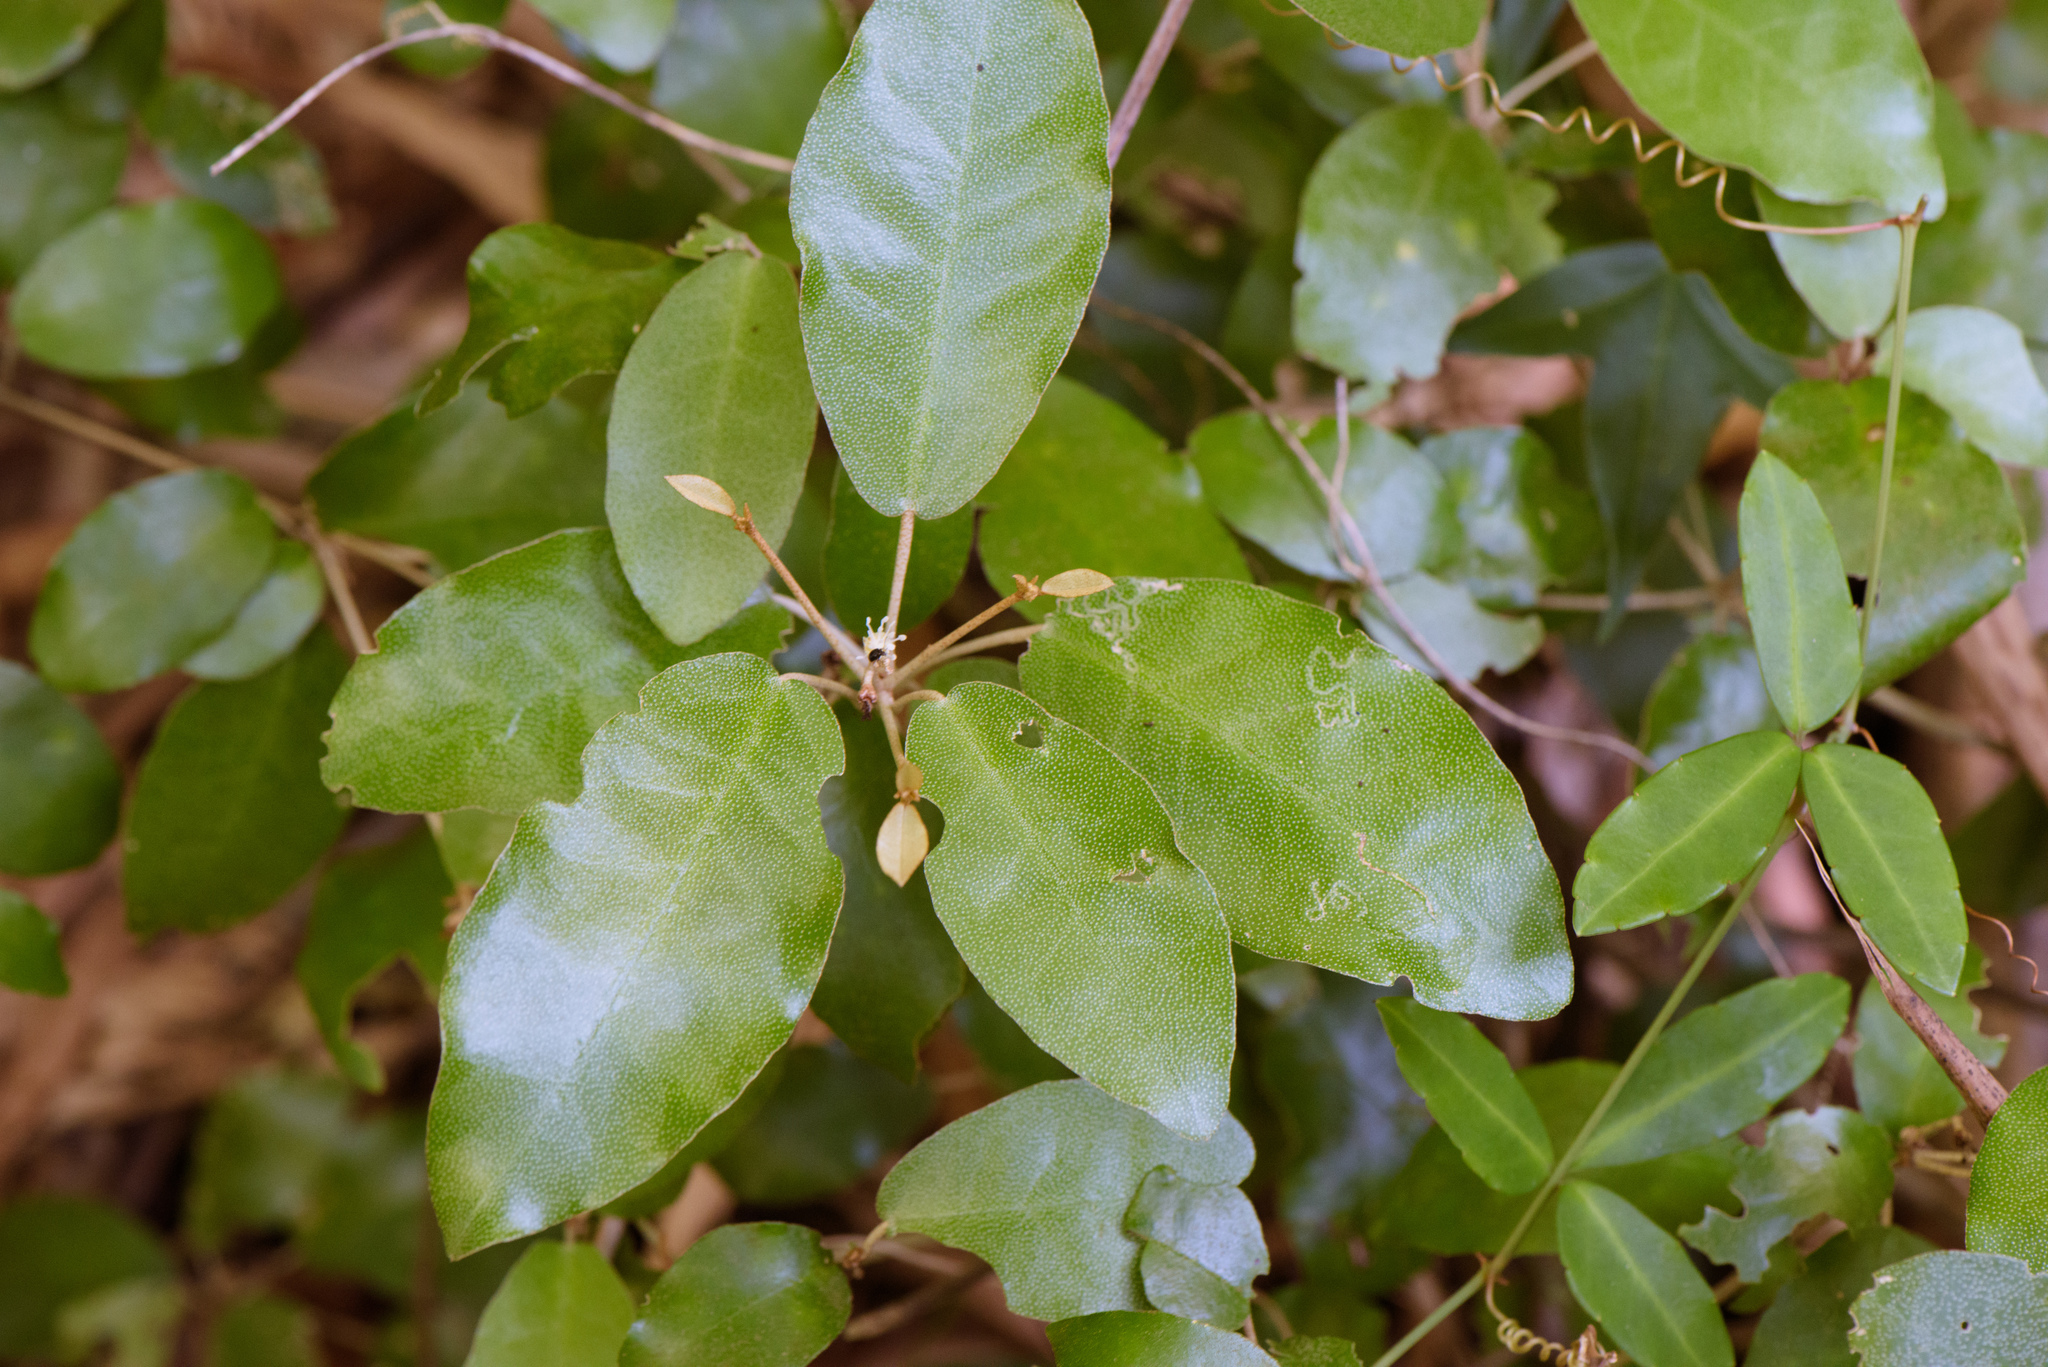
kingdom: Plantae
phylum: Tracheophyta
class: Magnoliopsida
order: Malpighiales
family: Euphorbiaceae
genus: Croton
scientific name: Croton cascarilloides
